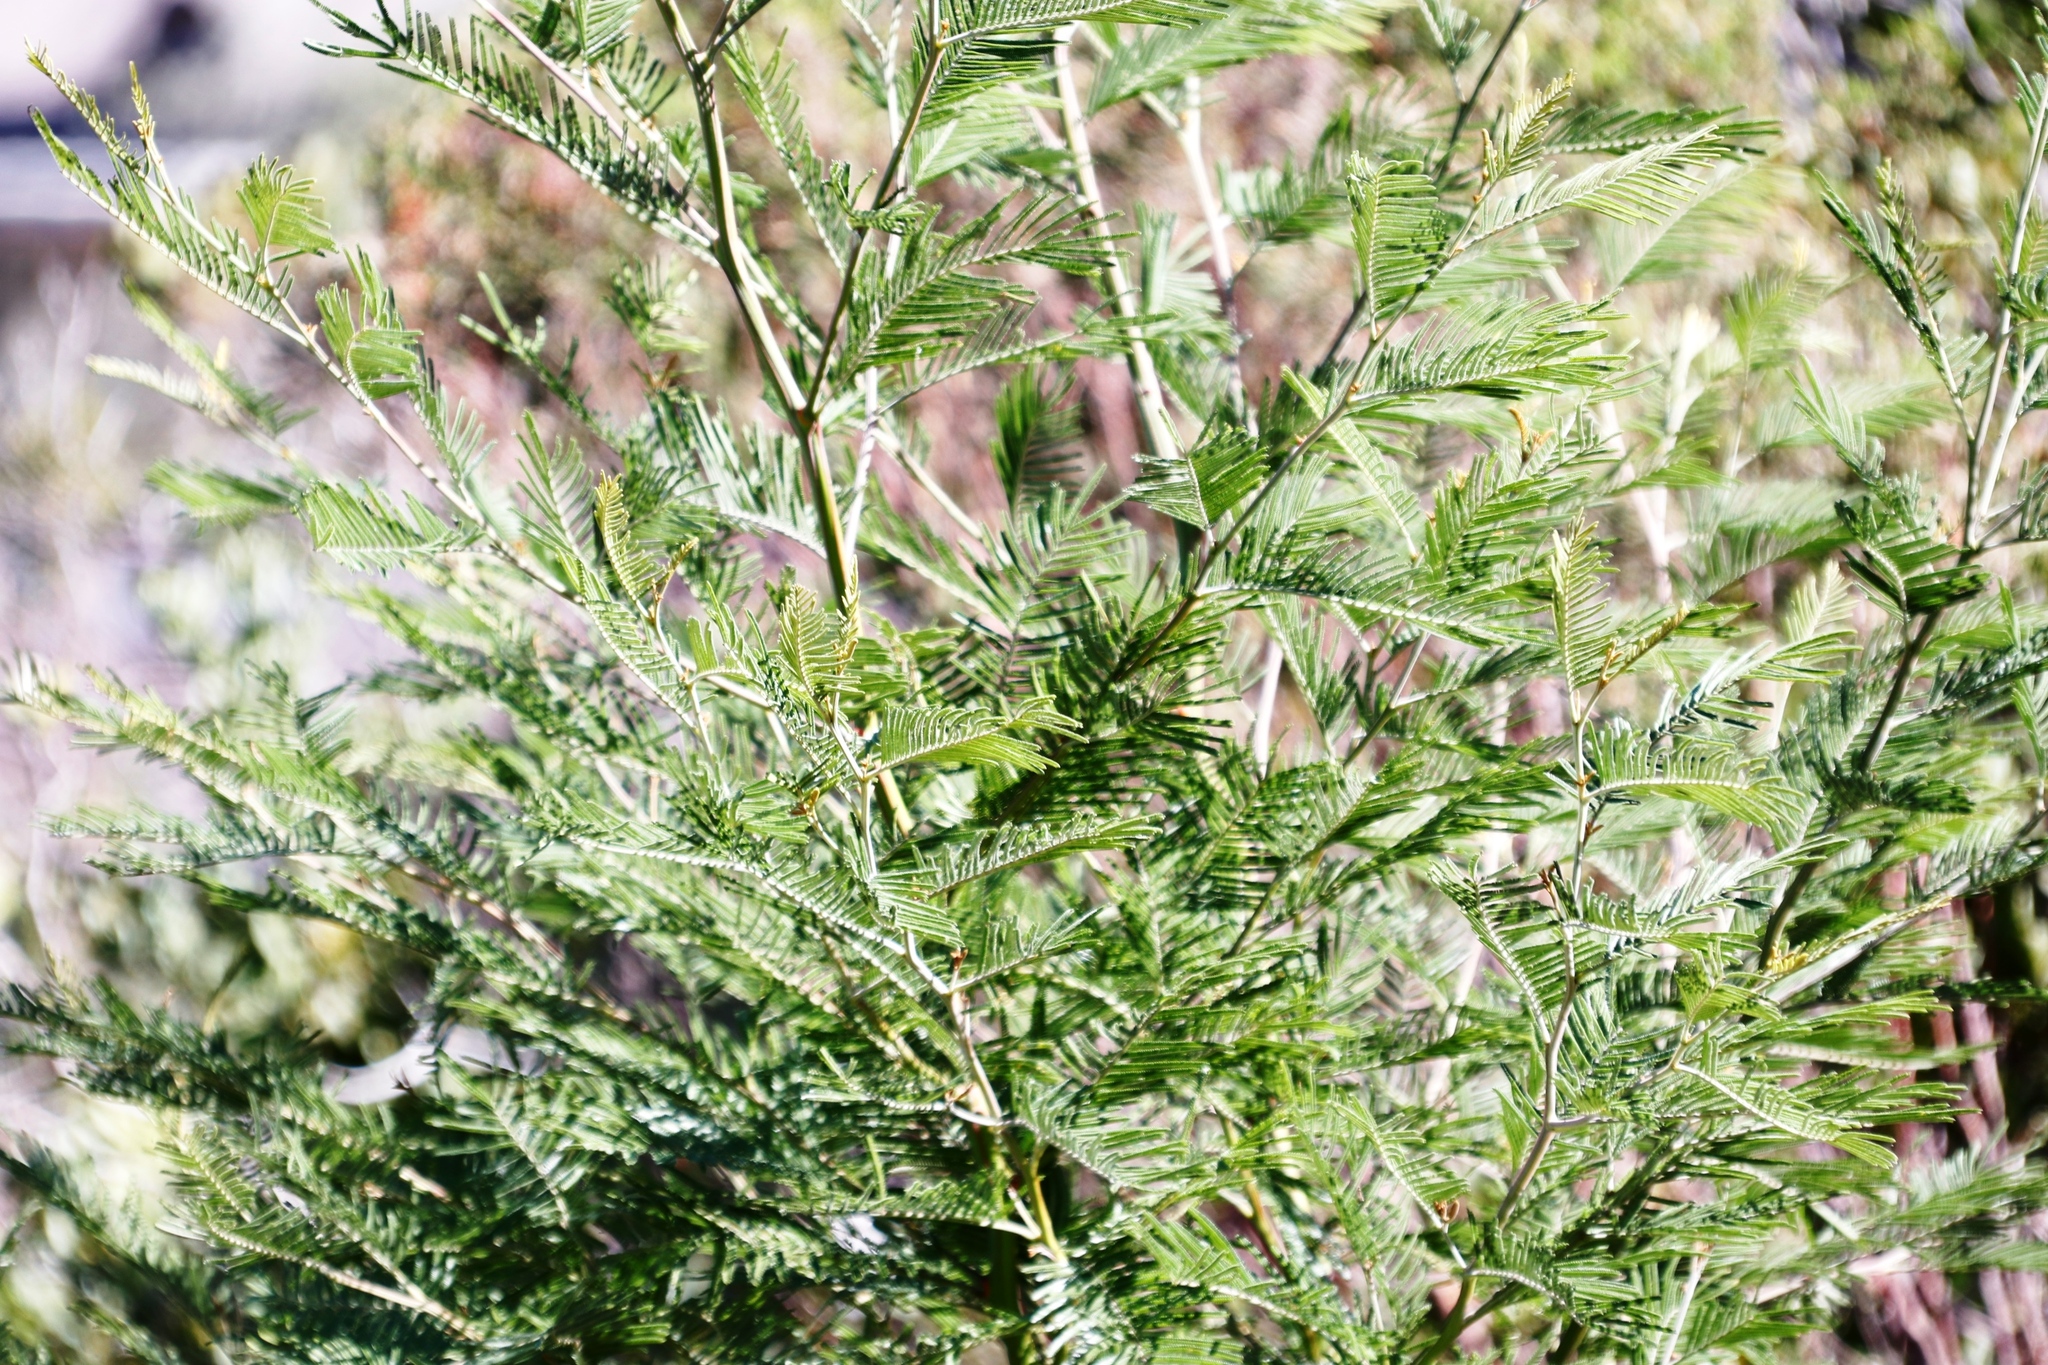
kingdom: Plantae
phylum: Tracheophyta
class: Magnoliopsida
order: Fabales
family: Fabaceae
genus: Acacia
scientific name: Acacia mearnsii
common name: Black wattle
